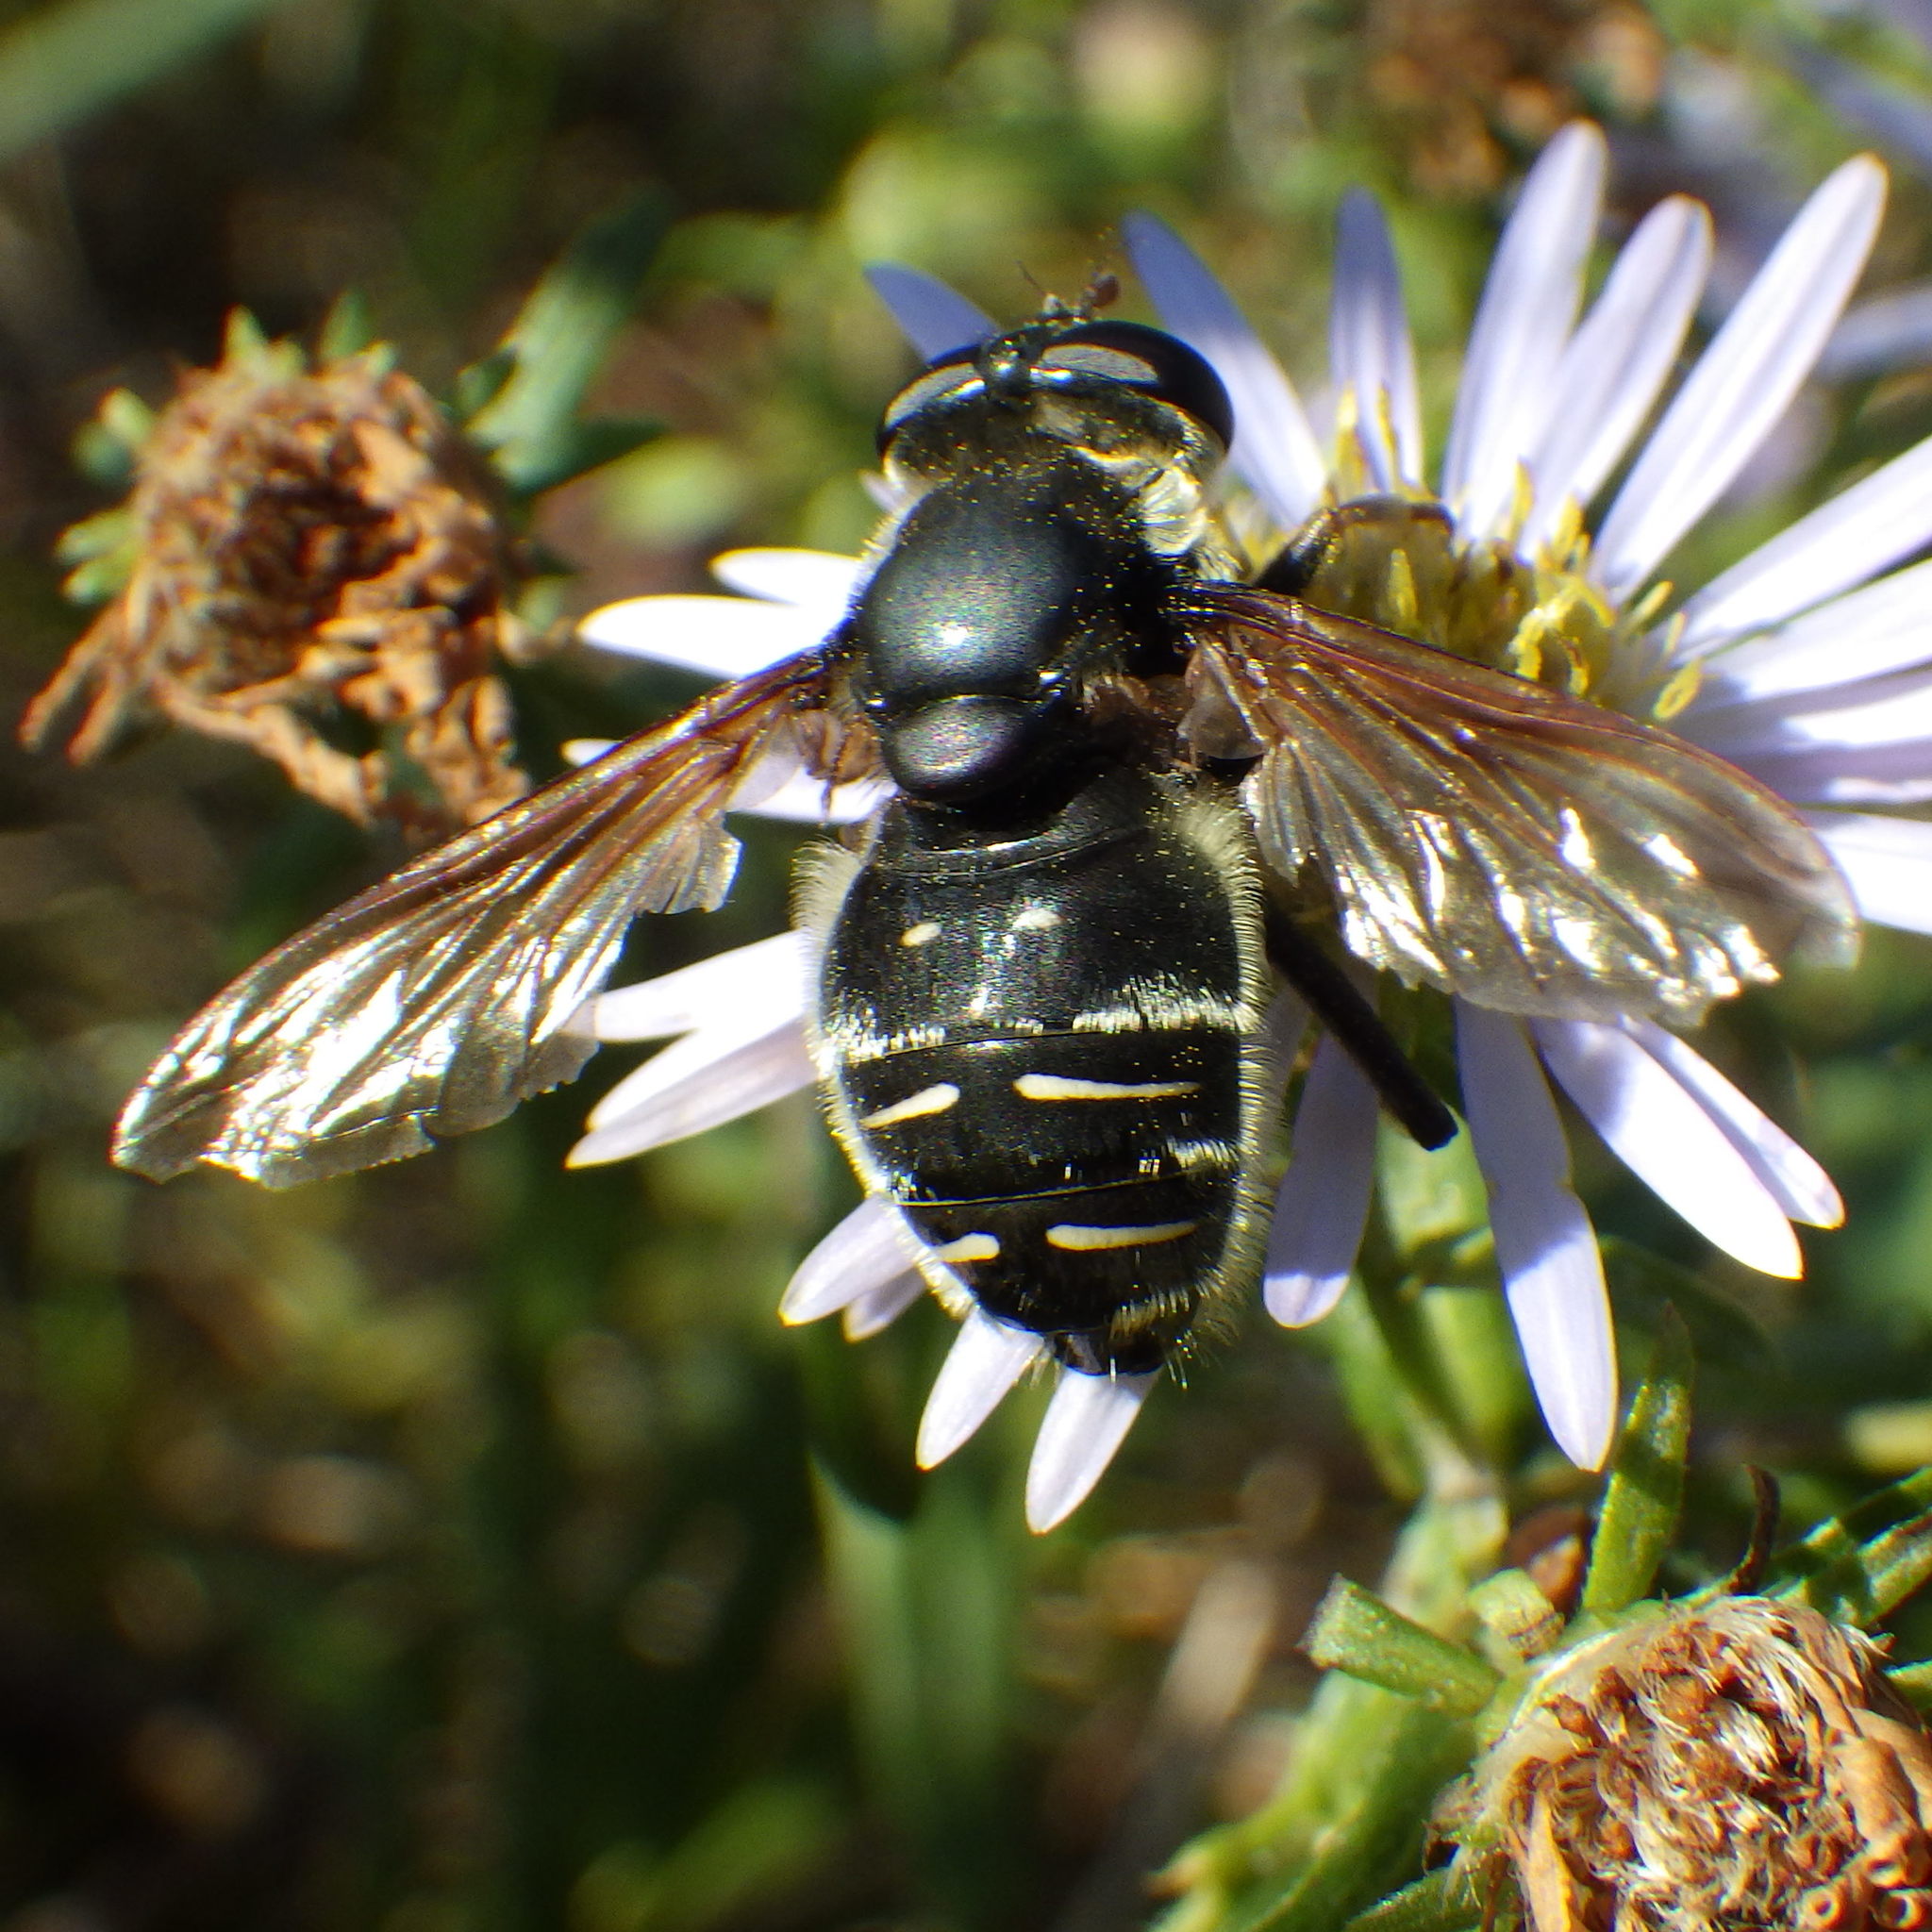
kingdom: Animalia
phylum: Arthropoda
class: Insecta
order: Diptera
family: Syrphidae
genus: Sericomyia
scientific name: Sericomyia militaris
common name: Narrow-banded pond fly
